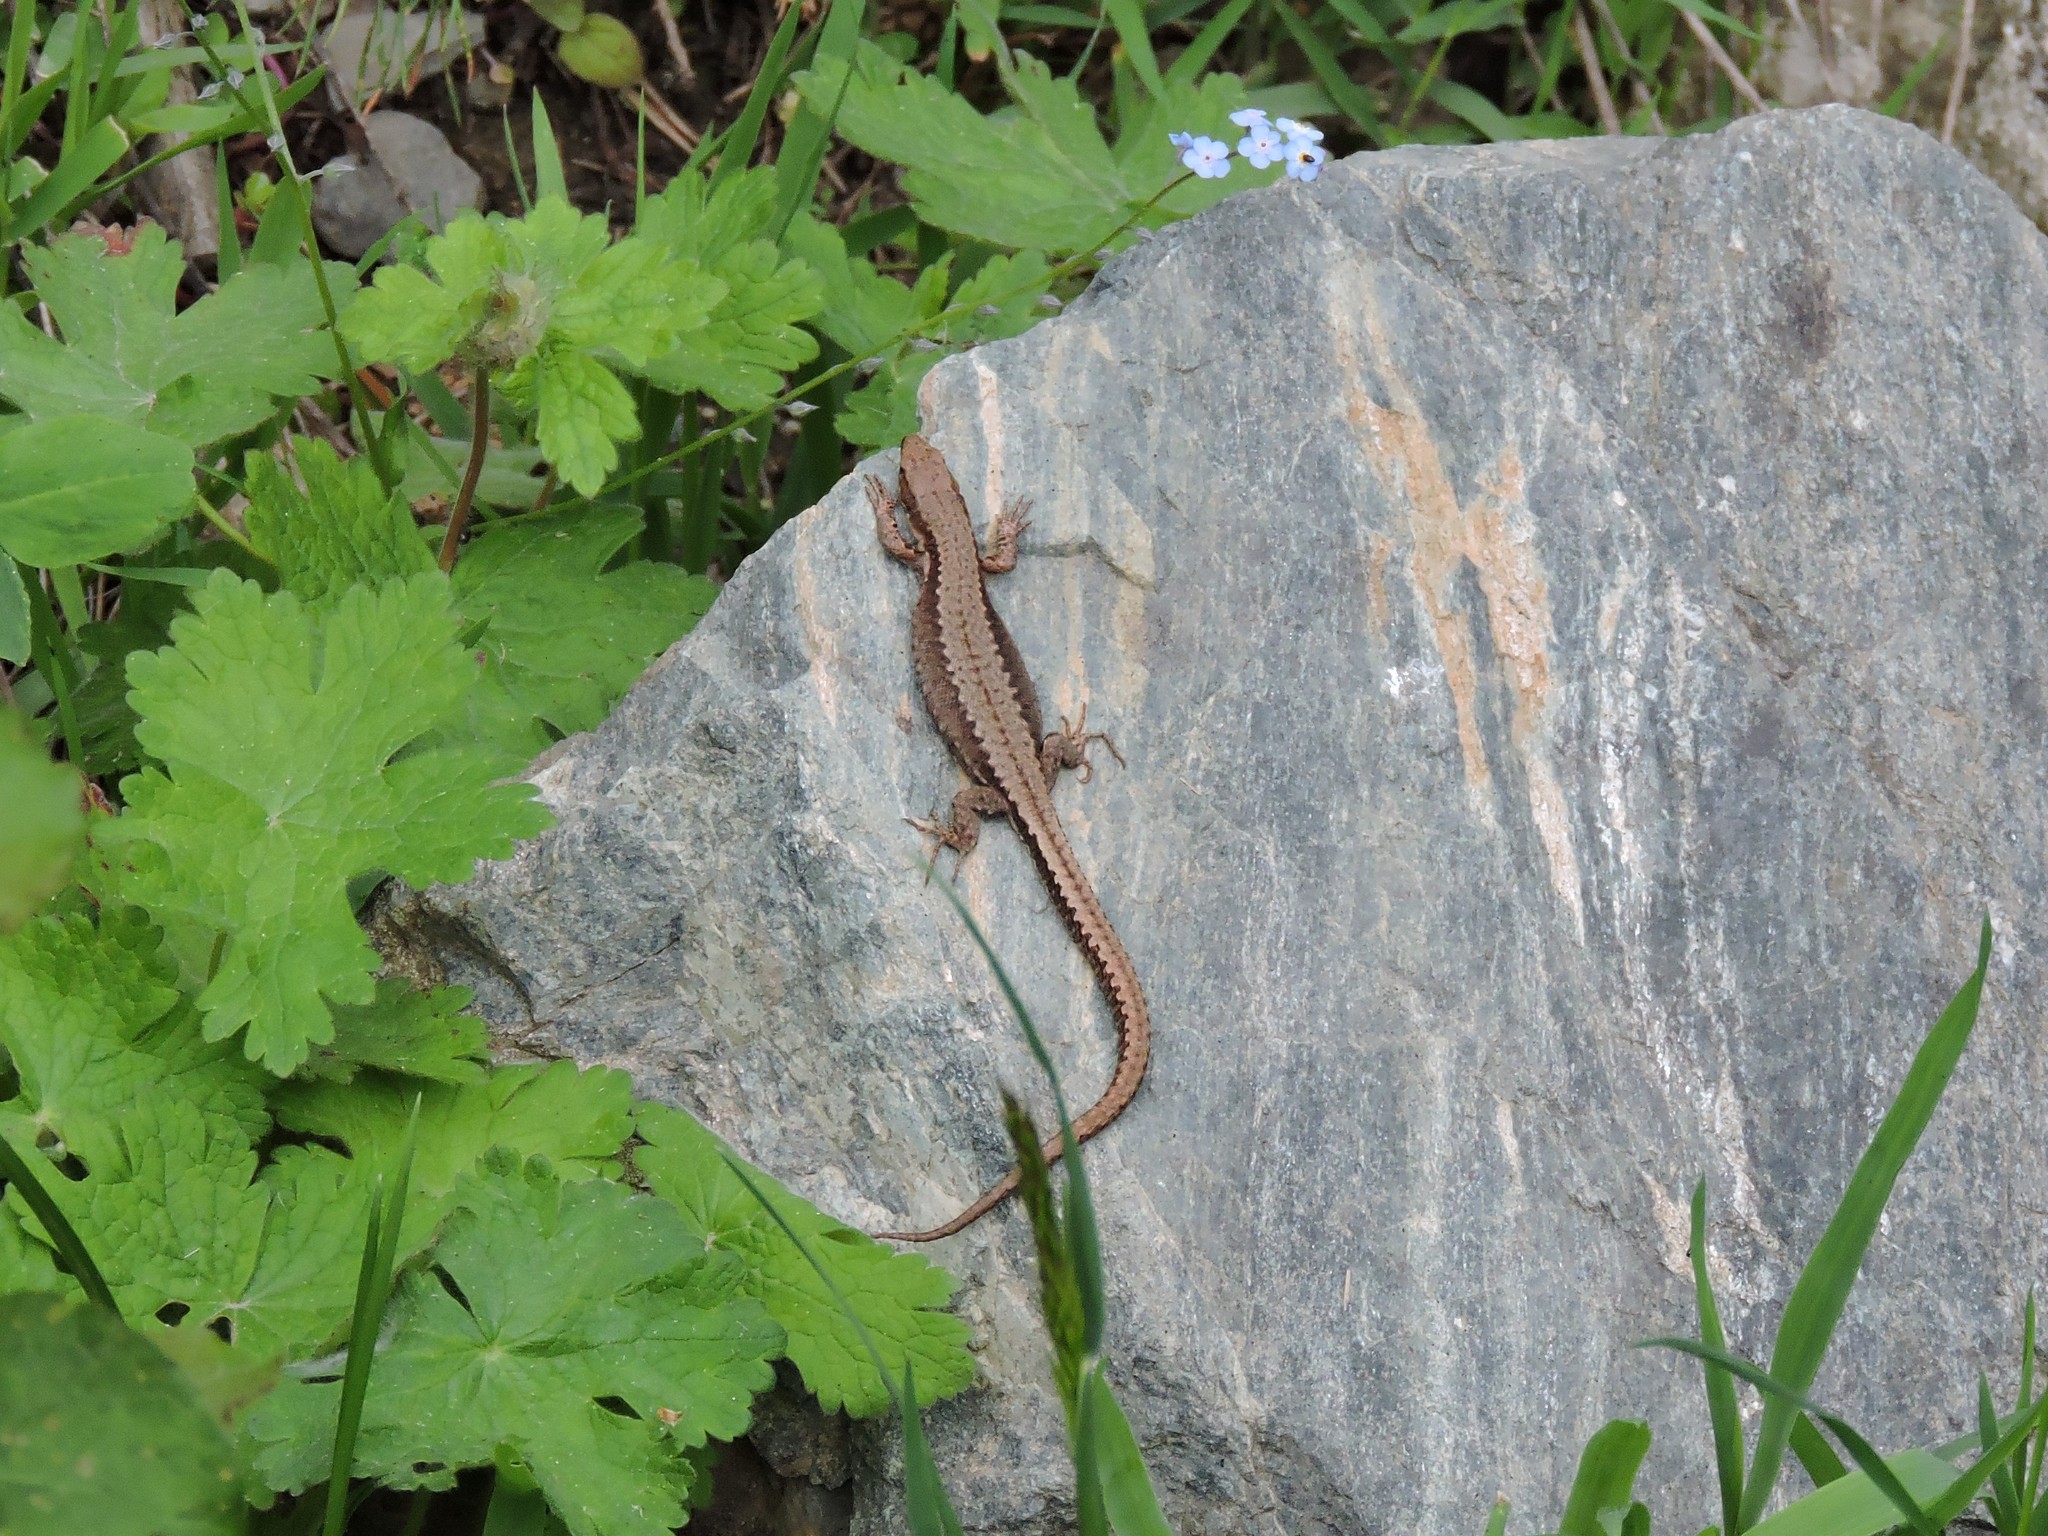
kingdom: Animalia
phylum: Chordata
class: Squamata
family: Lacertidae
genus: Darevskia
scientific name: Darevskia derjugini
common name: Derjugin's lizard
